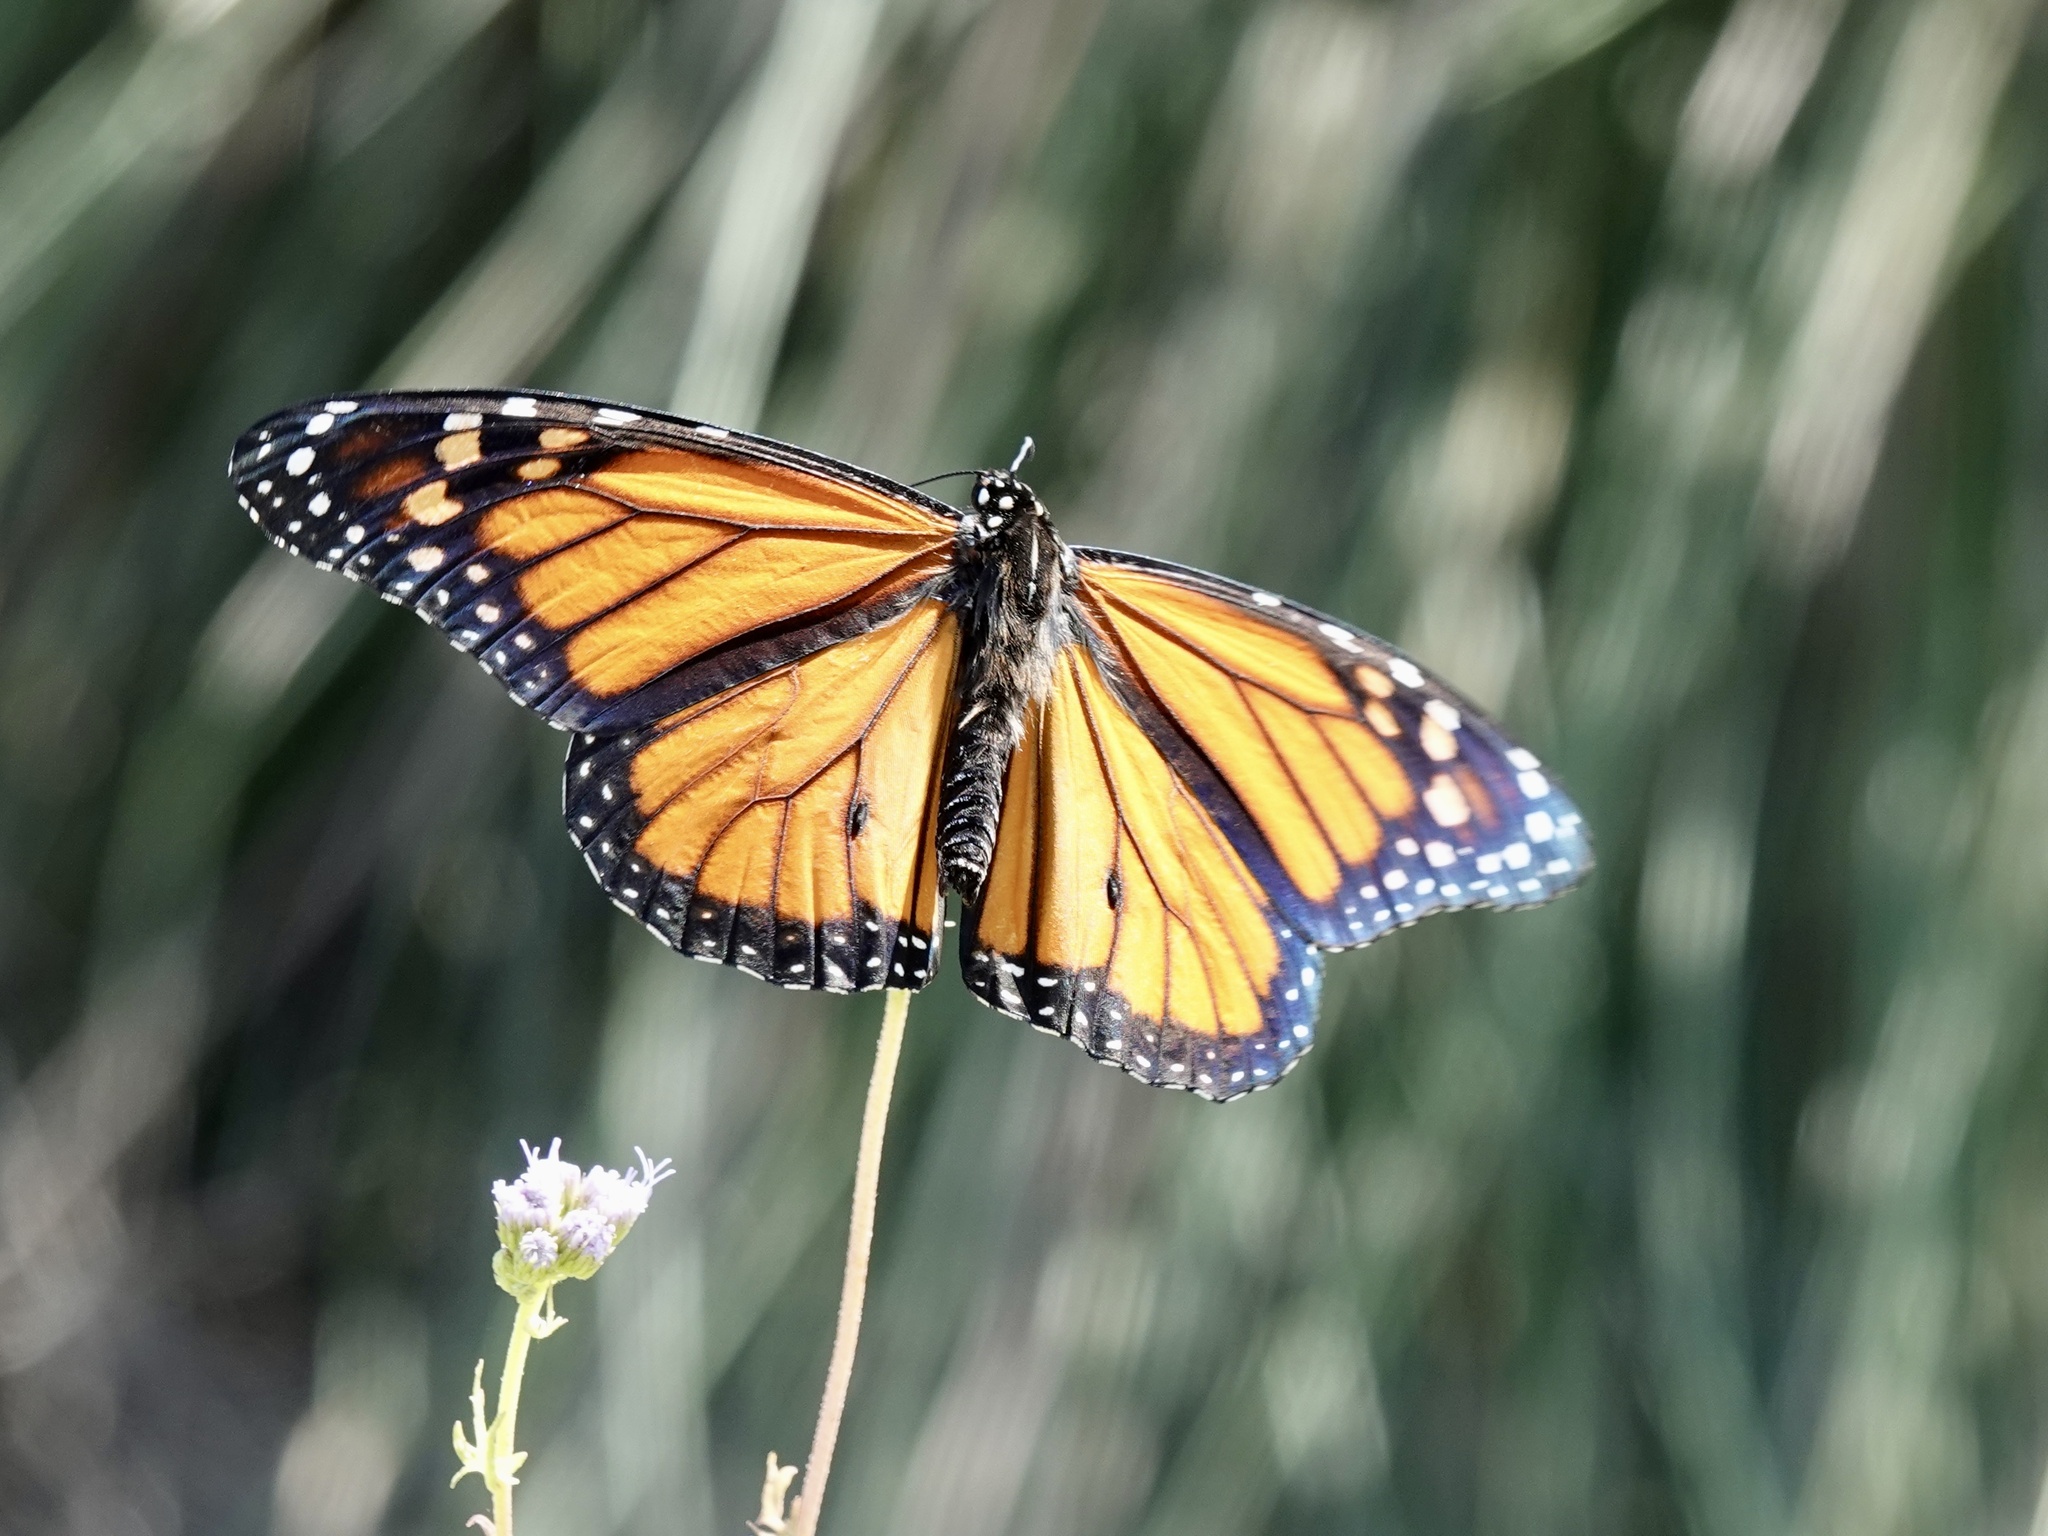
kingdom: Animalia
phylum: Arthropoda
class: Insecta
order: Lepidoptera
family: Nymphalidae
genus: Danaus
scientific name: Danaus plexippus
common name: Monarch
